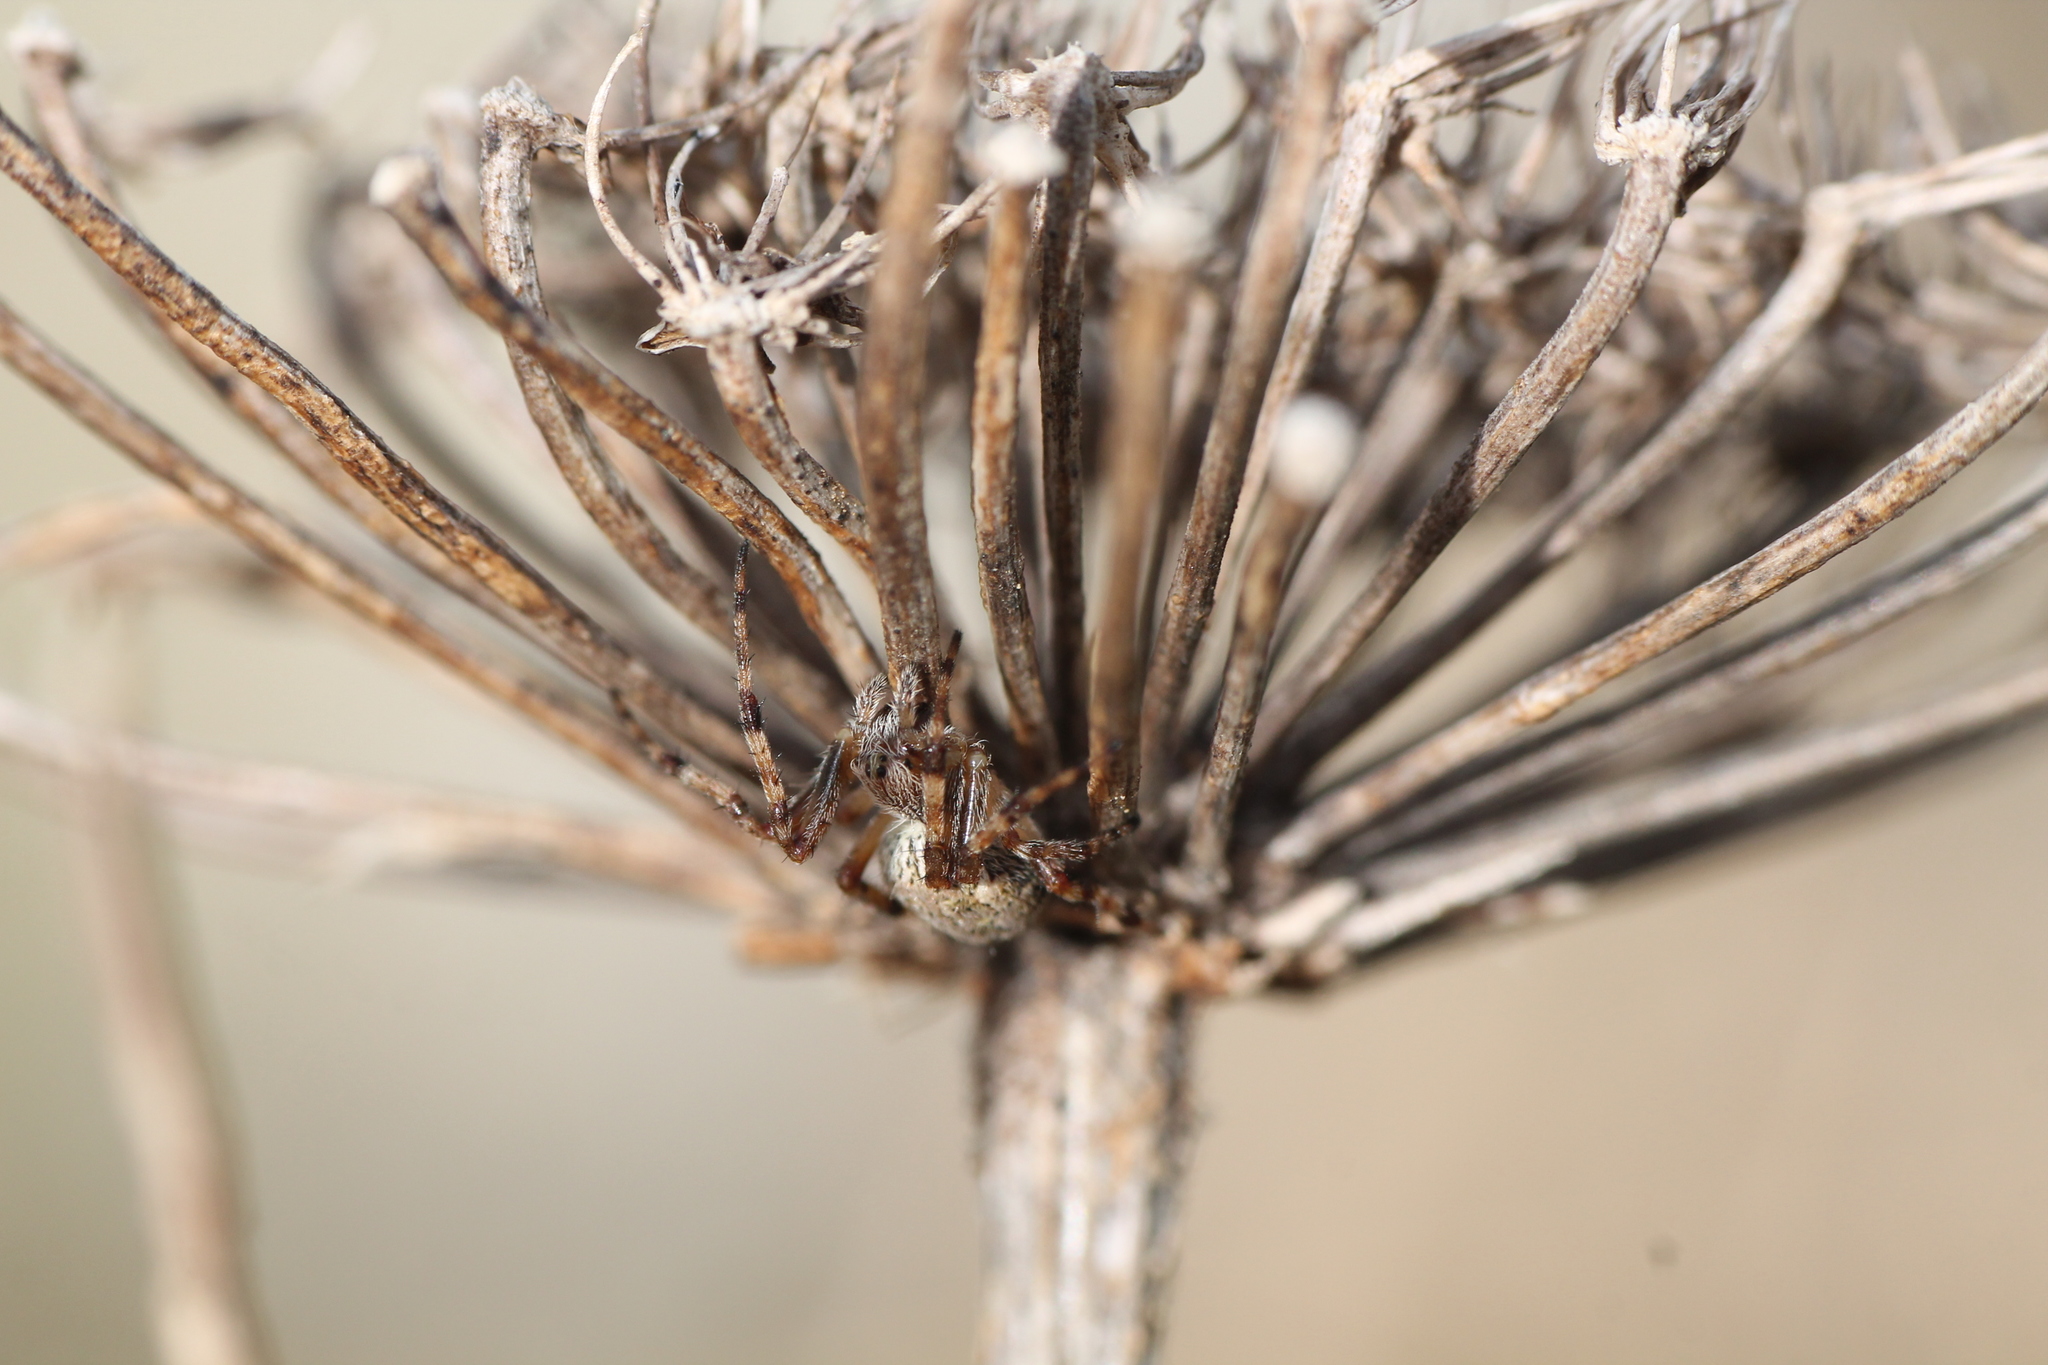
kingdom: Animalia
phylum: Arthropoda
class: Arachnida
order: Araneae
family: Araneidae
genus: Salsa
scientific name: Salsa fuliginata
